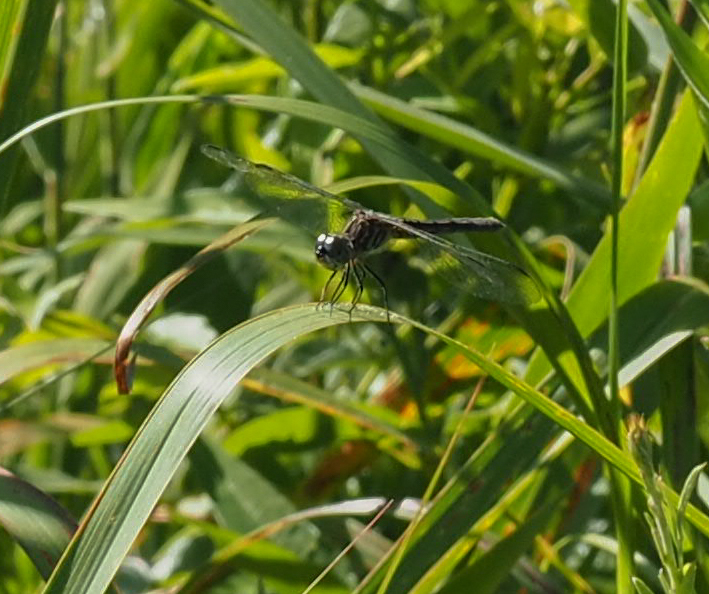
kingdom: Animalia
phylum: Arthropoda
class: Insecta
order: Odonata
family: Libellulidae
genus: Pachydiplax
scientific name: Pachydiplax longipennis
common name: Blue dasher
